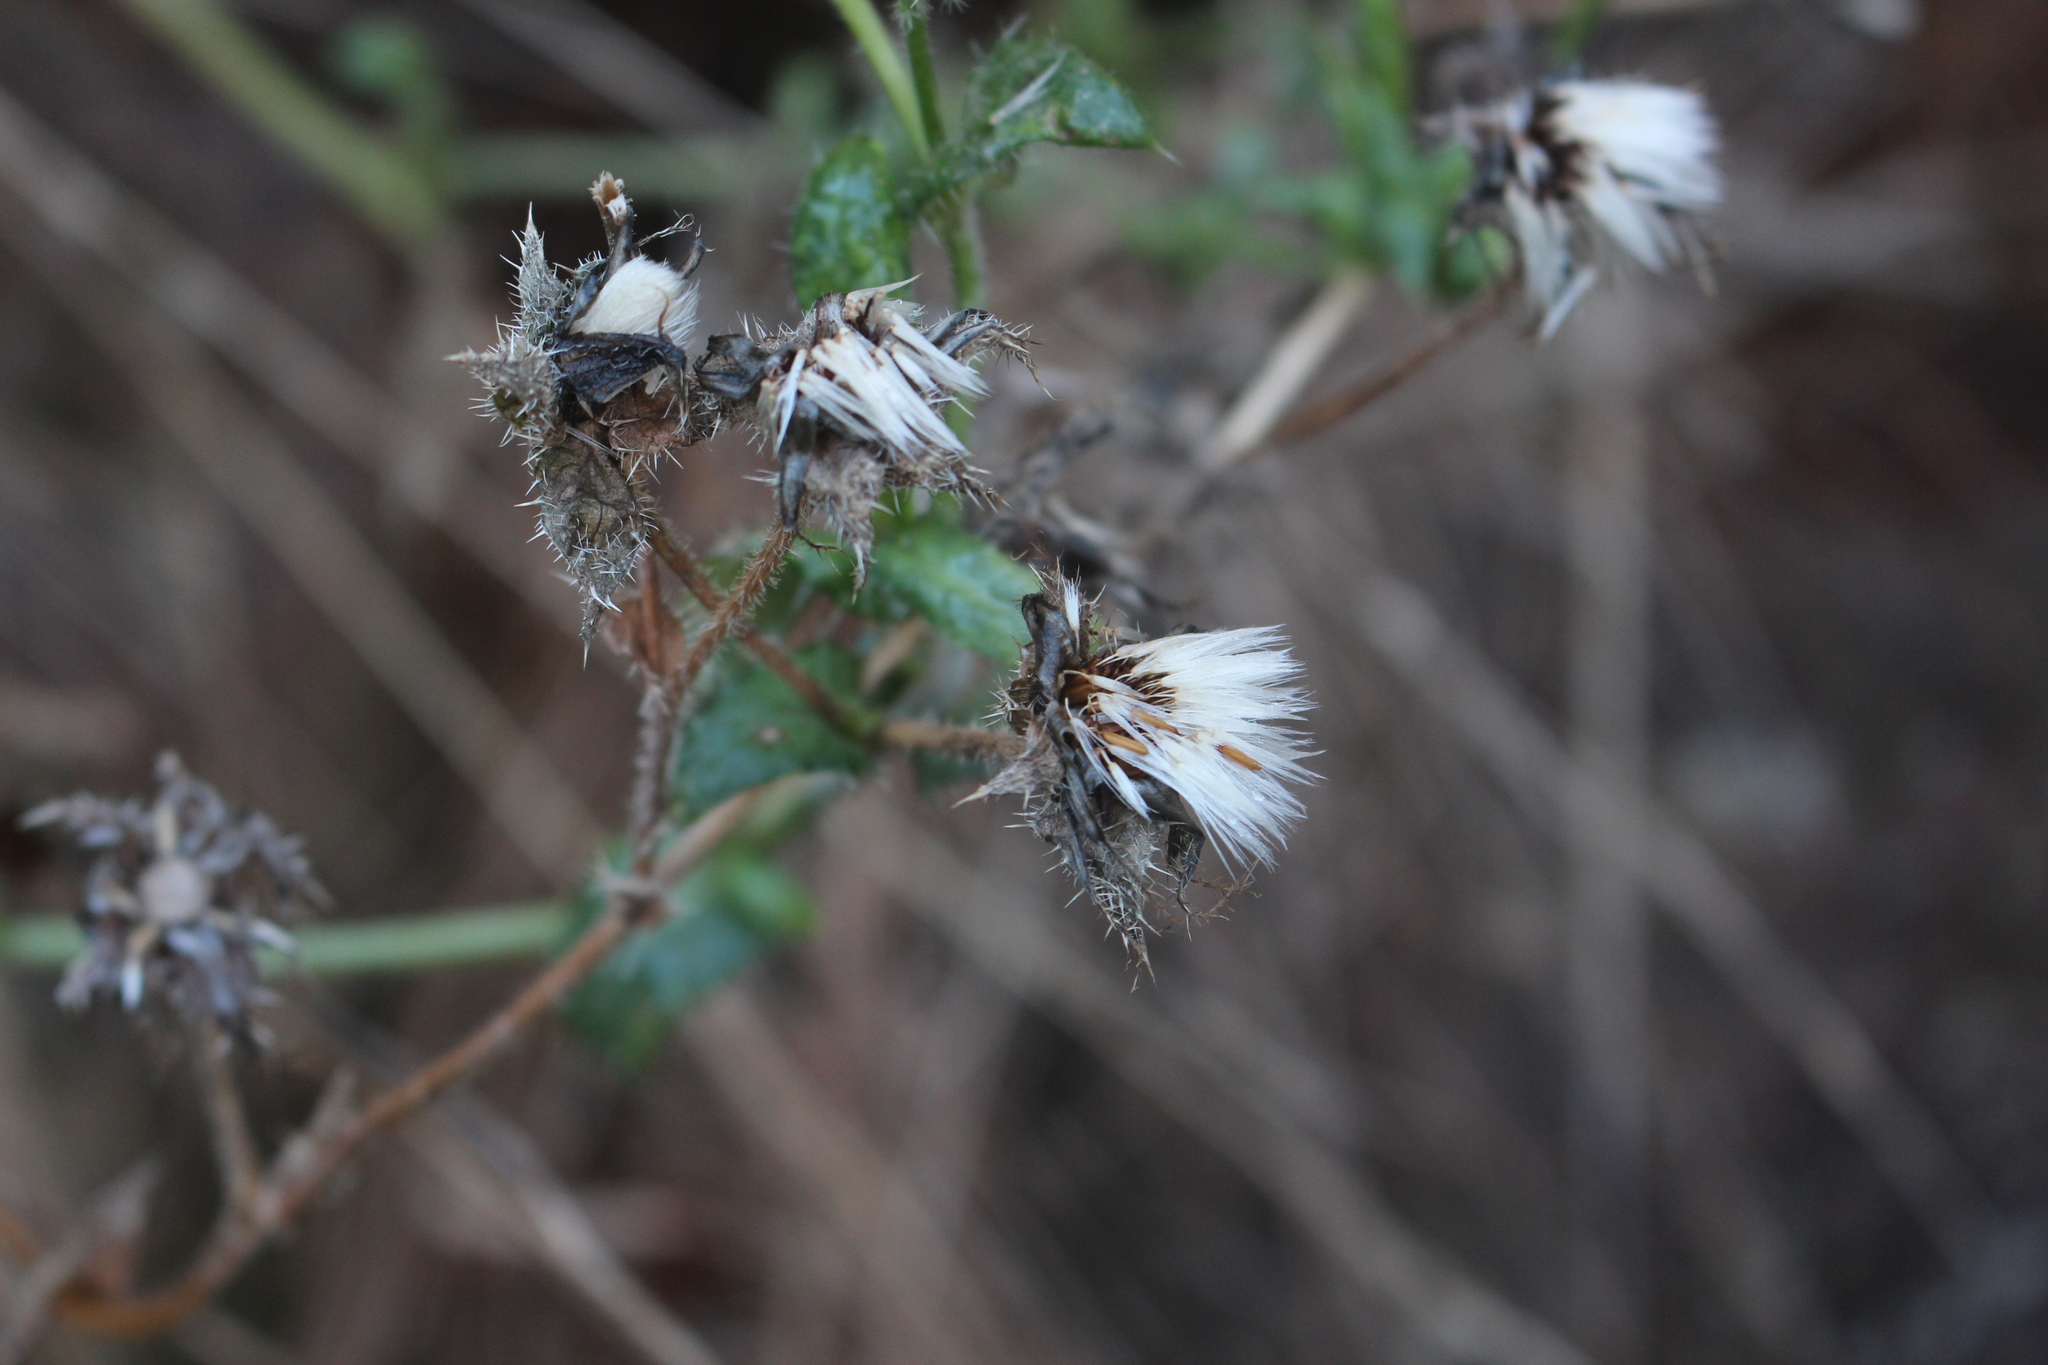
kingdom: Plantae
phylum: Tracheophyta
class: Magnoliopsida
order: Asterales
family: Asteraceae
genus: Helminthotheca
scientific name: Helminthotheca echioides
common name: Ox-tongue
